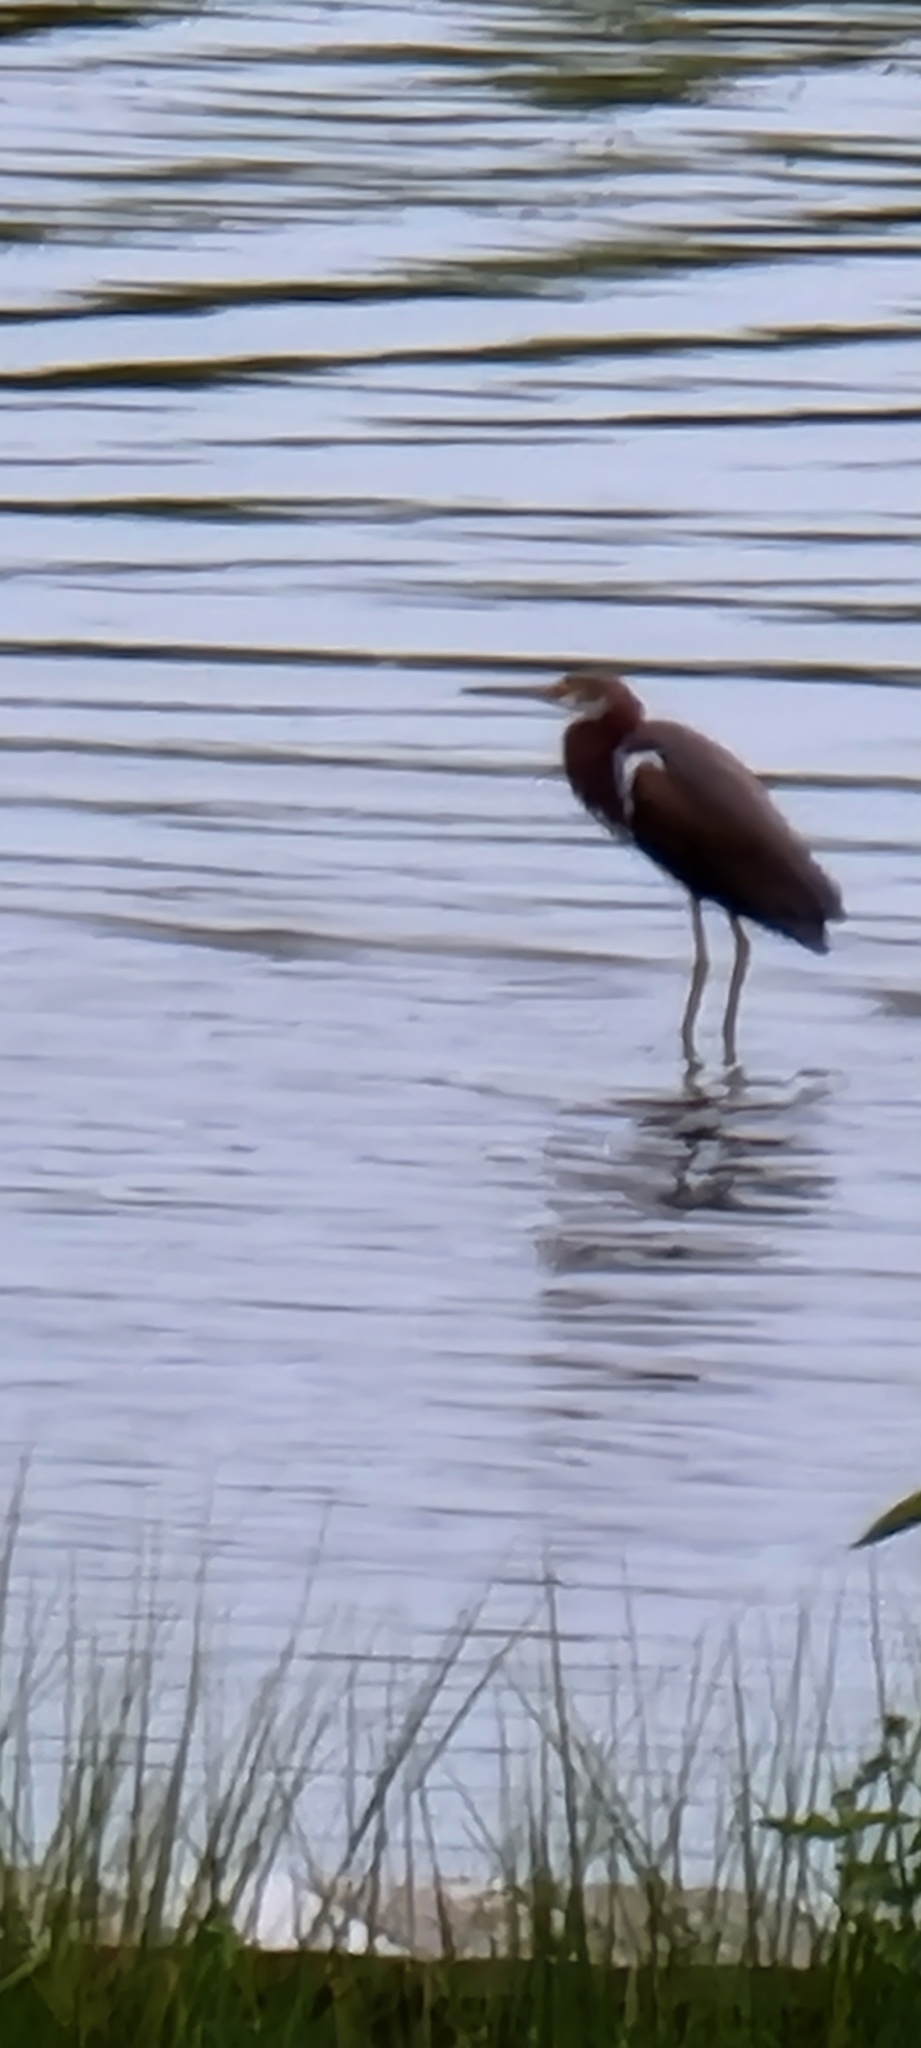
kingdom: Animalia
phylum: Chordata
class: Aves
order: Pelecaniformes
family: Ardeidae
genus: Egretta
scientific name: Egretta tricolor
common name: Tricolored heron
